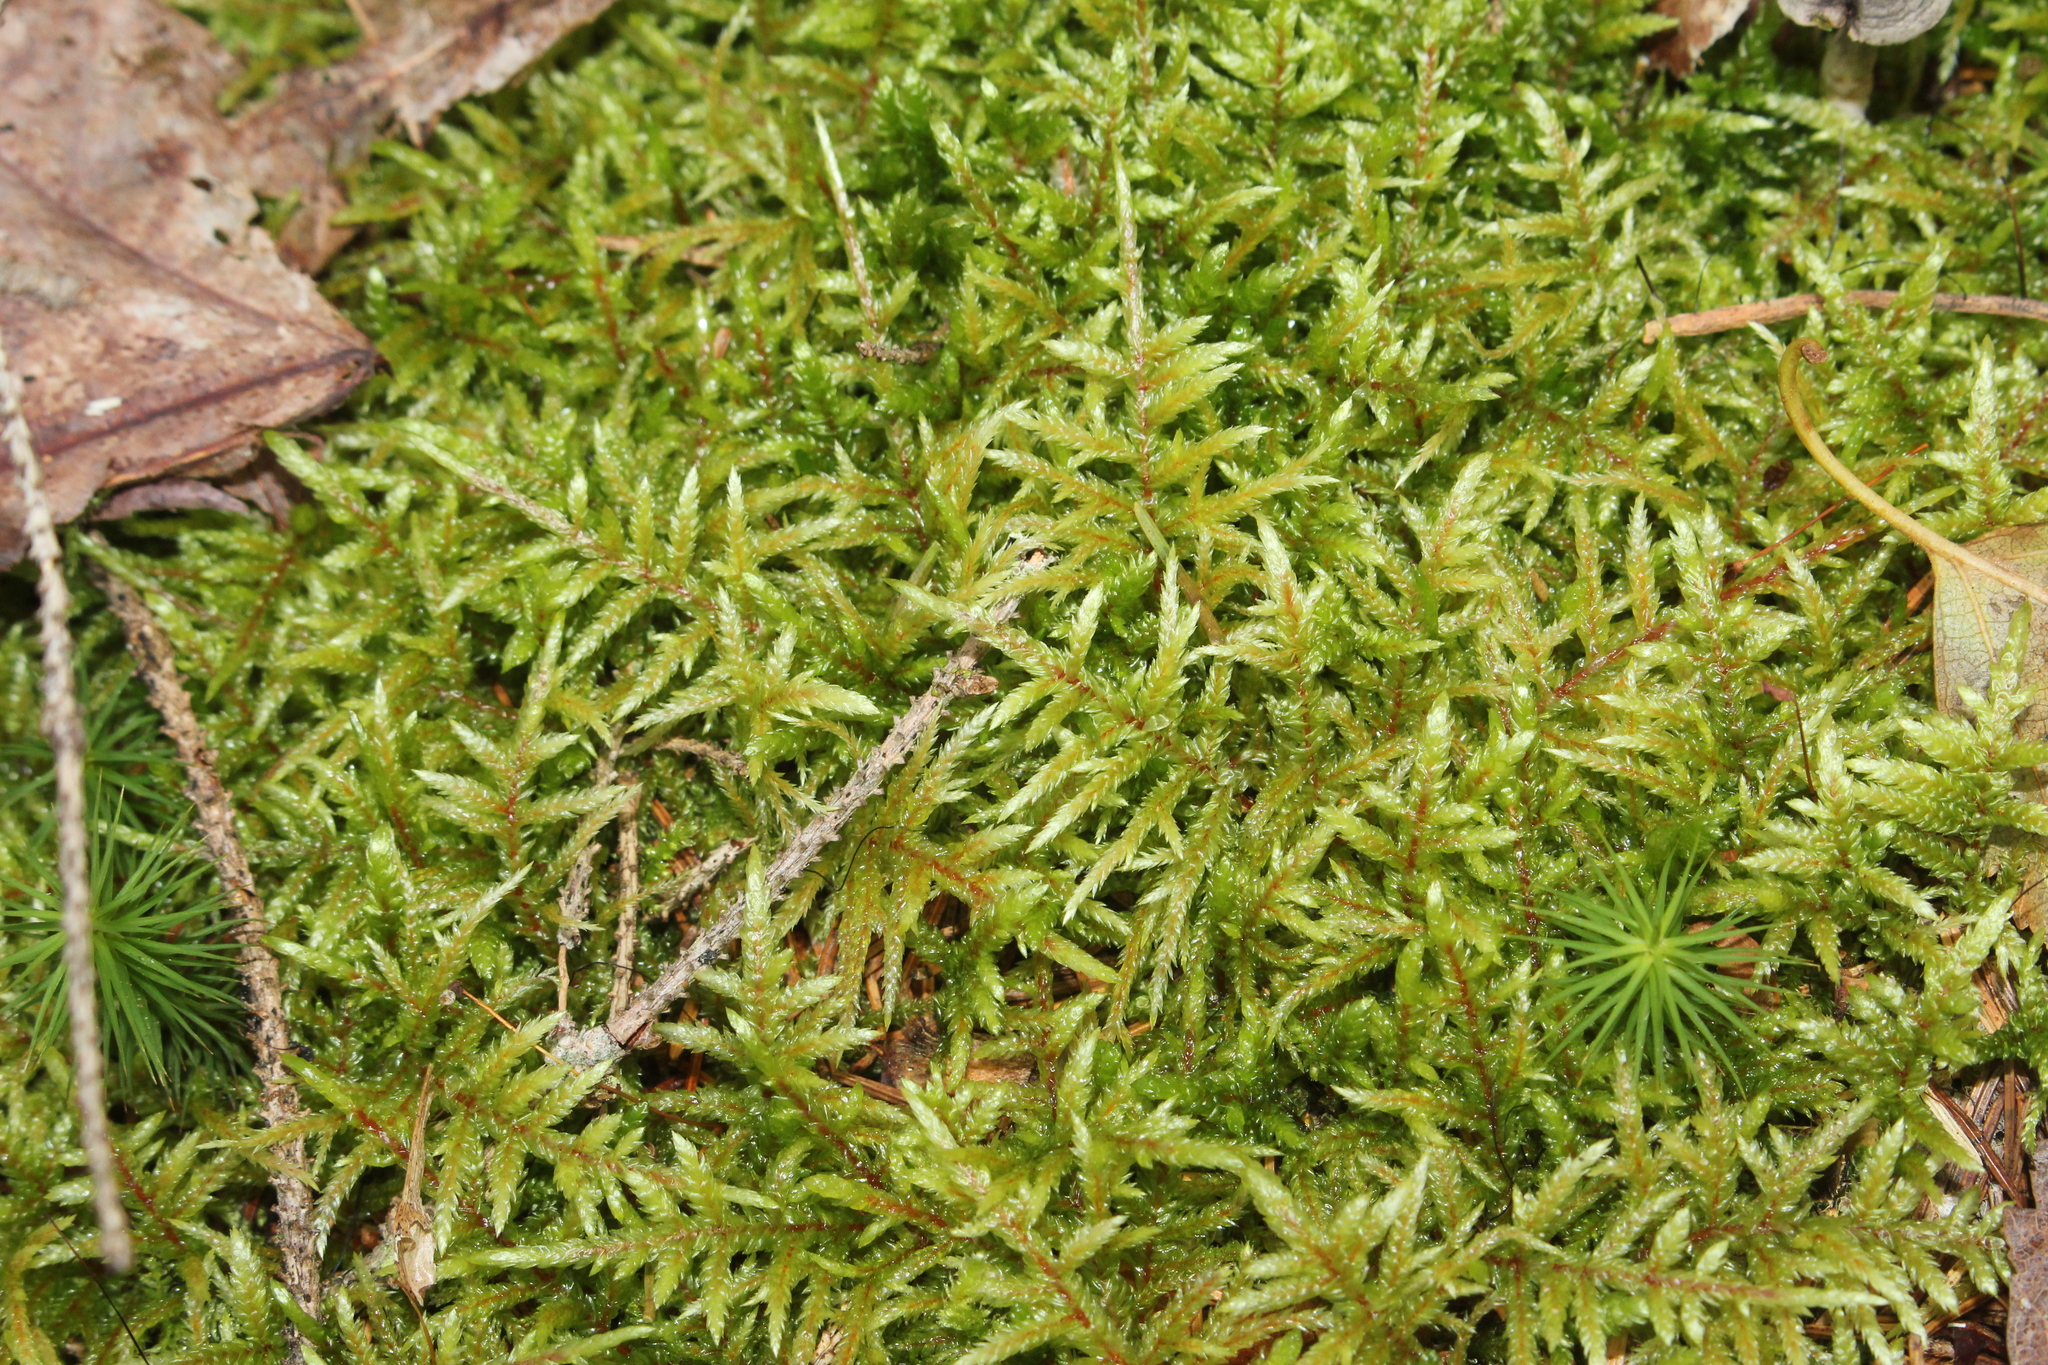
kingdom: Plantae
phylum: Bryophyta
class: Bryopsida
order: Hypnales
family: Hylocomiaceae
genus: Pleurozium
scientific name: Pleurozium schreberi
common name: Red-stemmed feather moss
